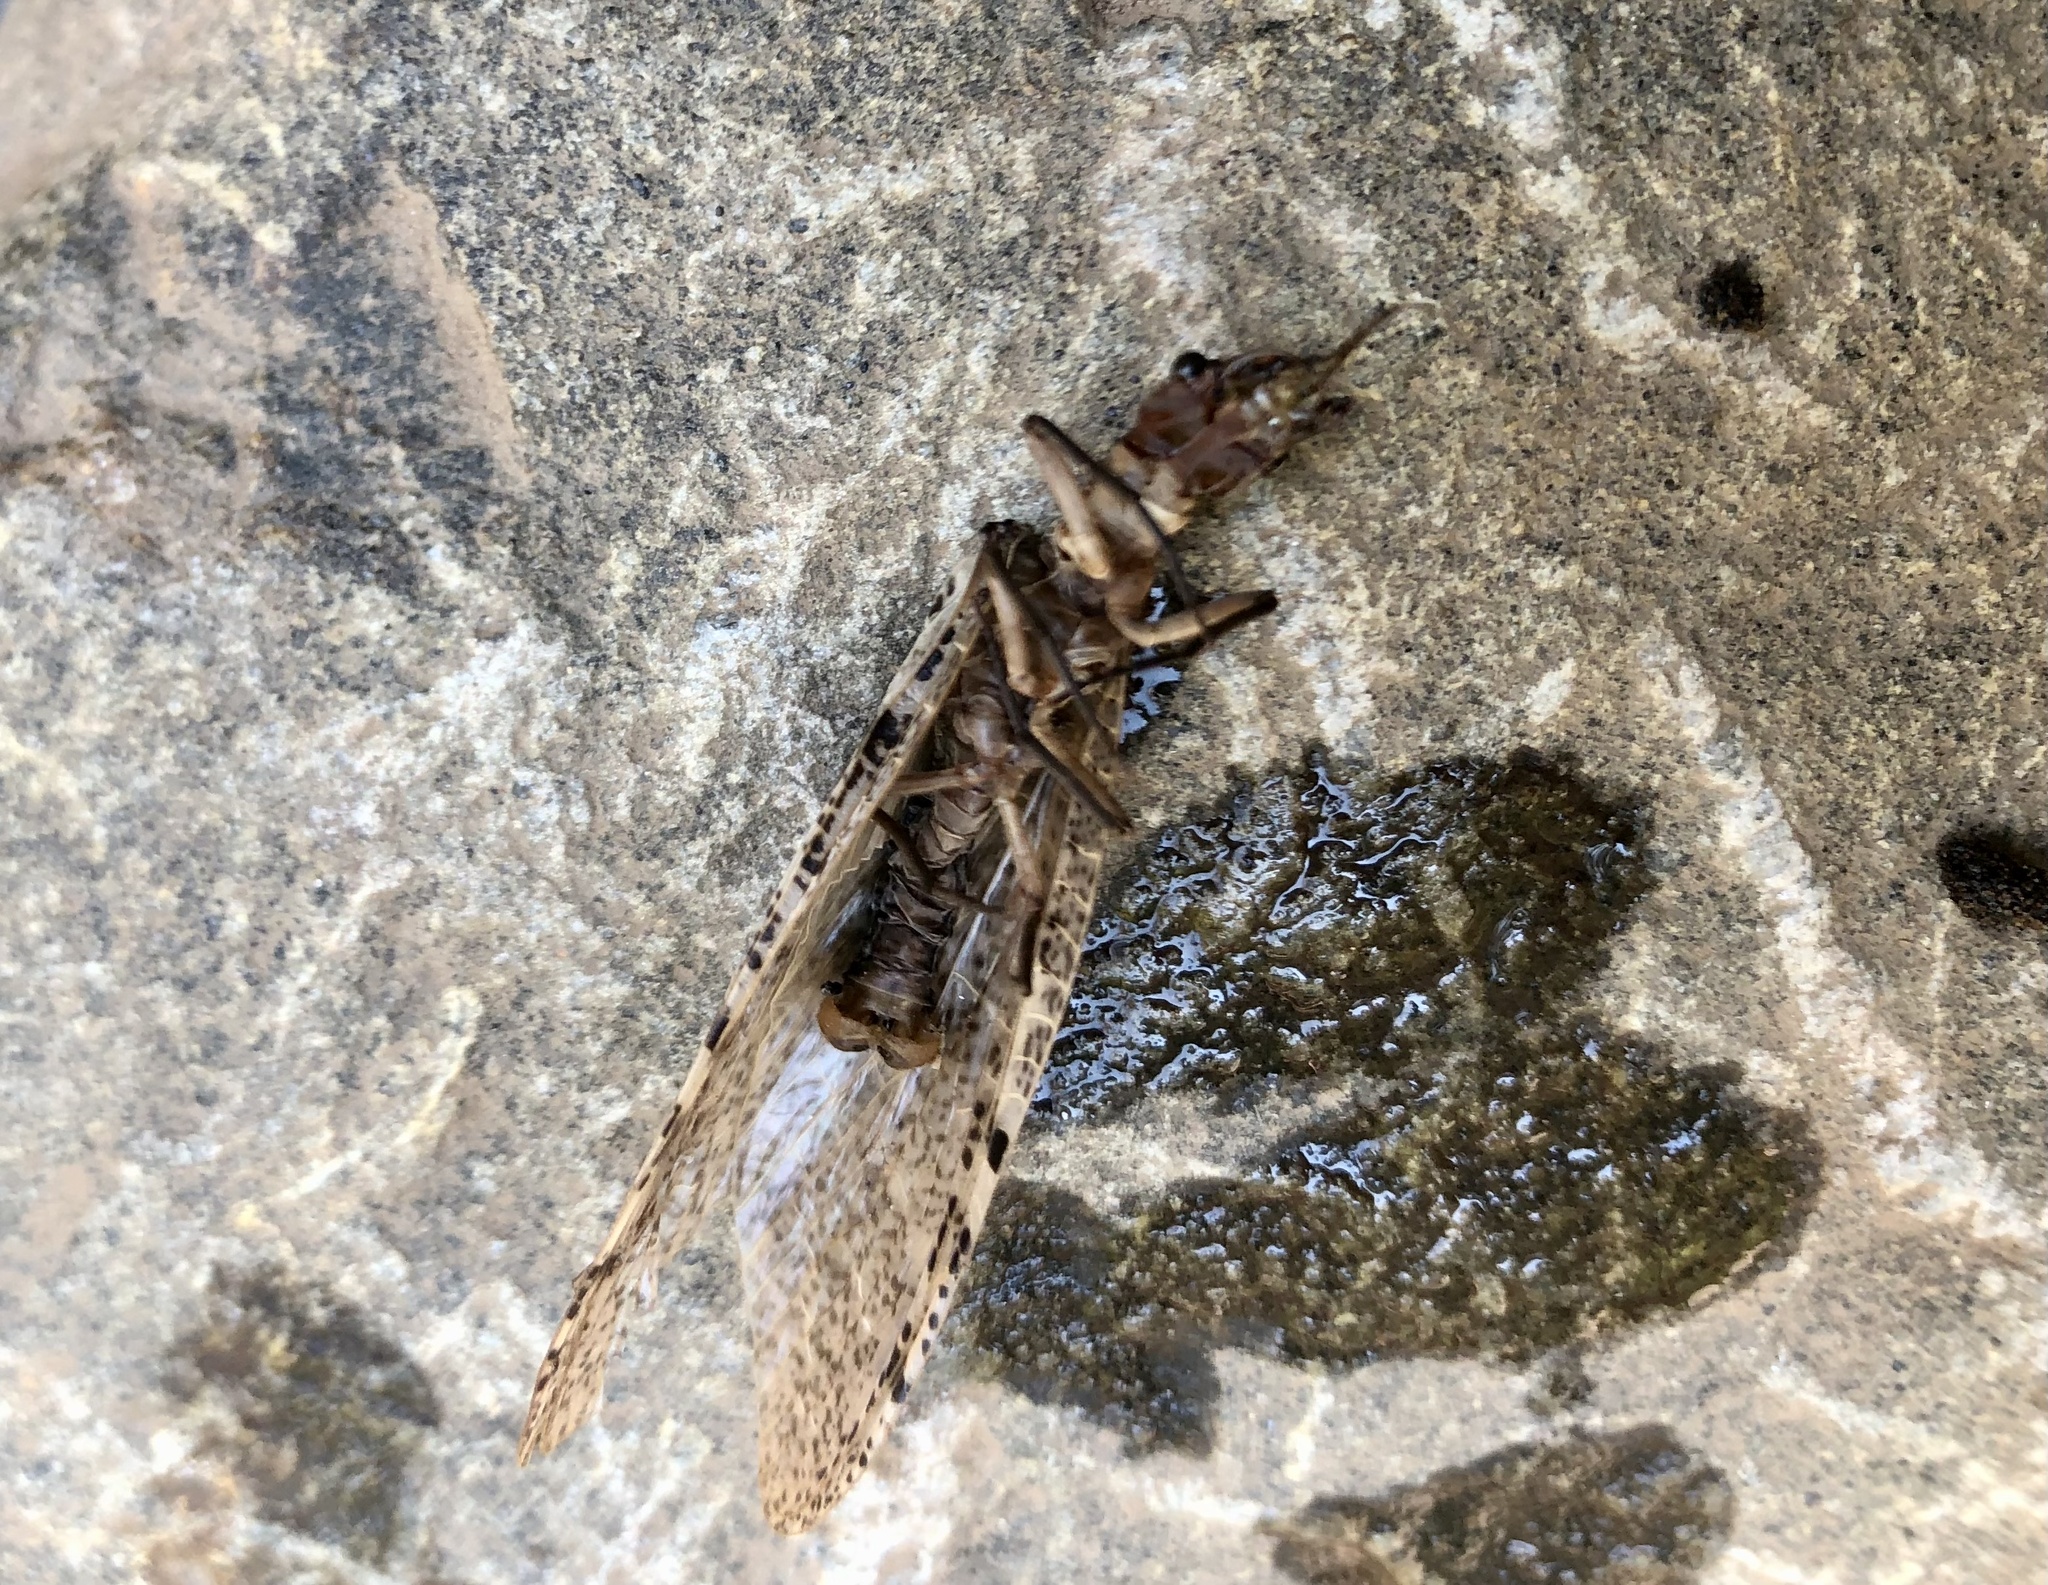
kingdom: Animalia
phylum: Arthropoda
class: Insecta
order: Megaloptera
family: Corydalidae
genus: Orohermes
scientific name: Orohermes crepusculus
